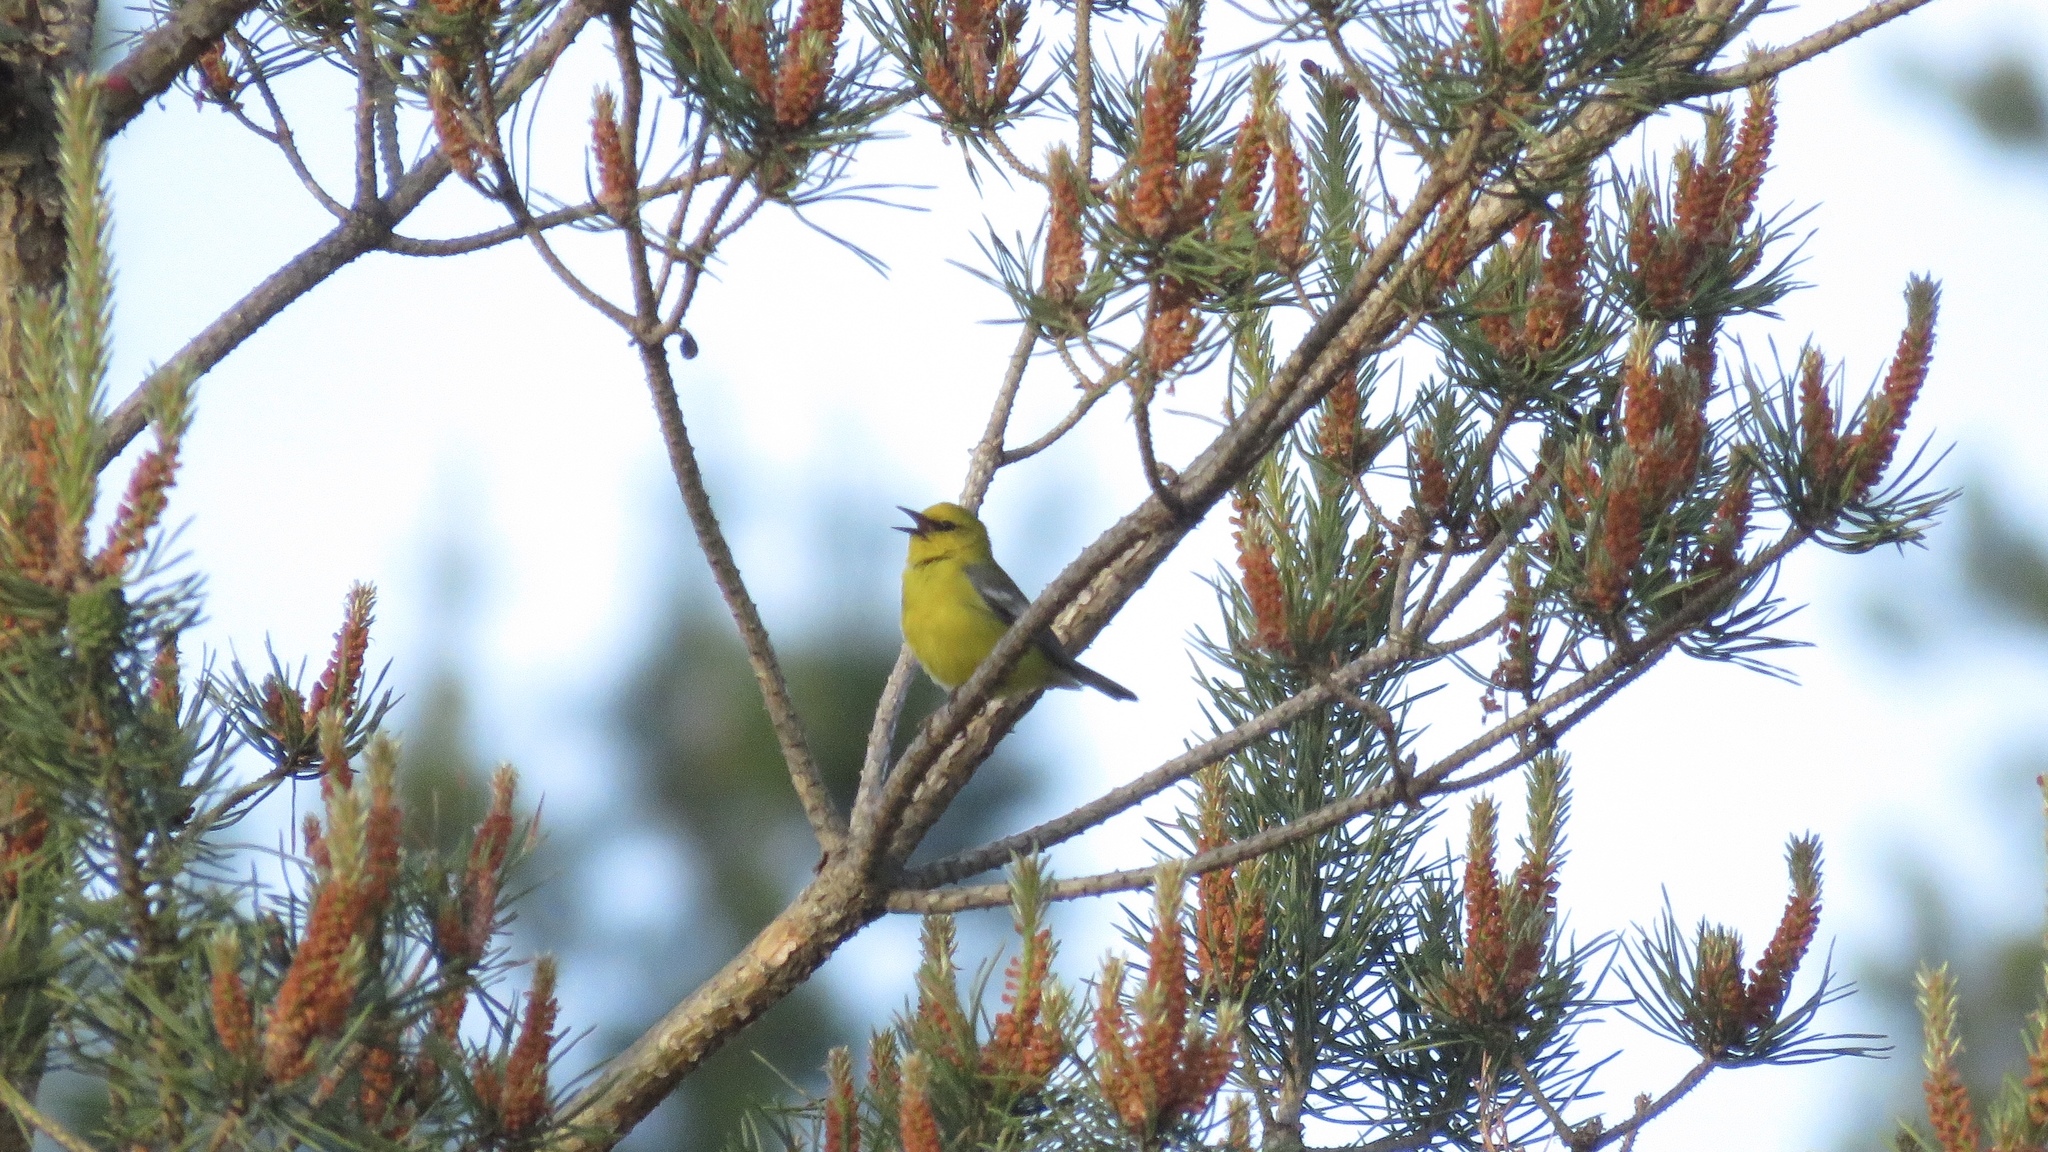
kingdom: Animalia
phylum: Chordata
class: Aves
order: Passeriformes
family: Parulidae
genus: Vermivora
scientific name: Vermivora cyanoptera
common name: Blue-winged warbler
